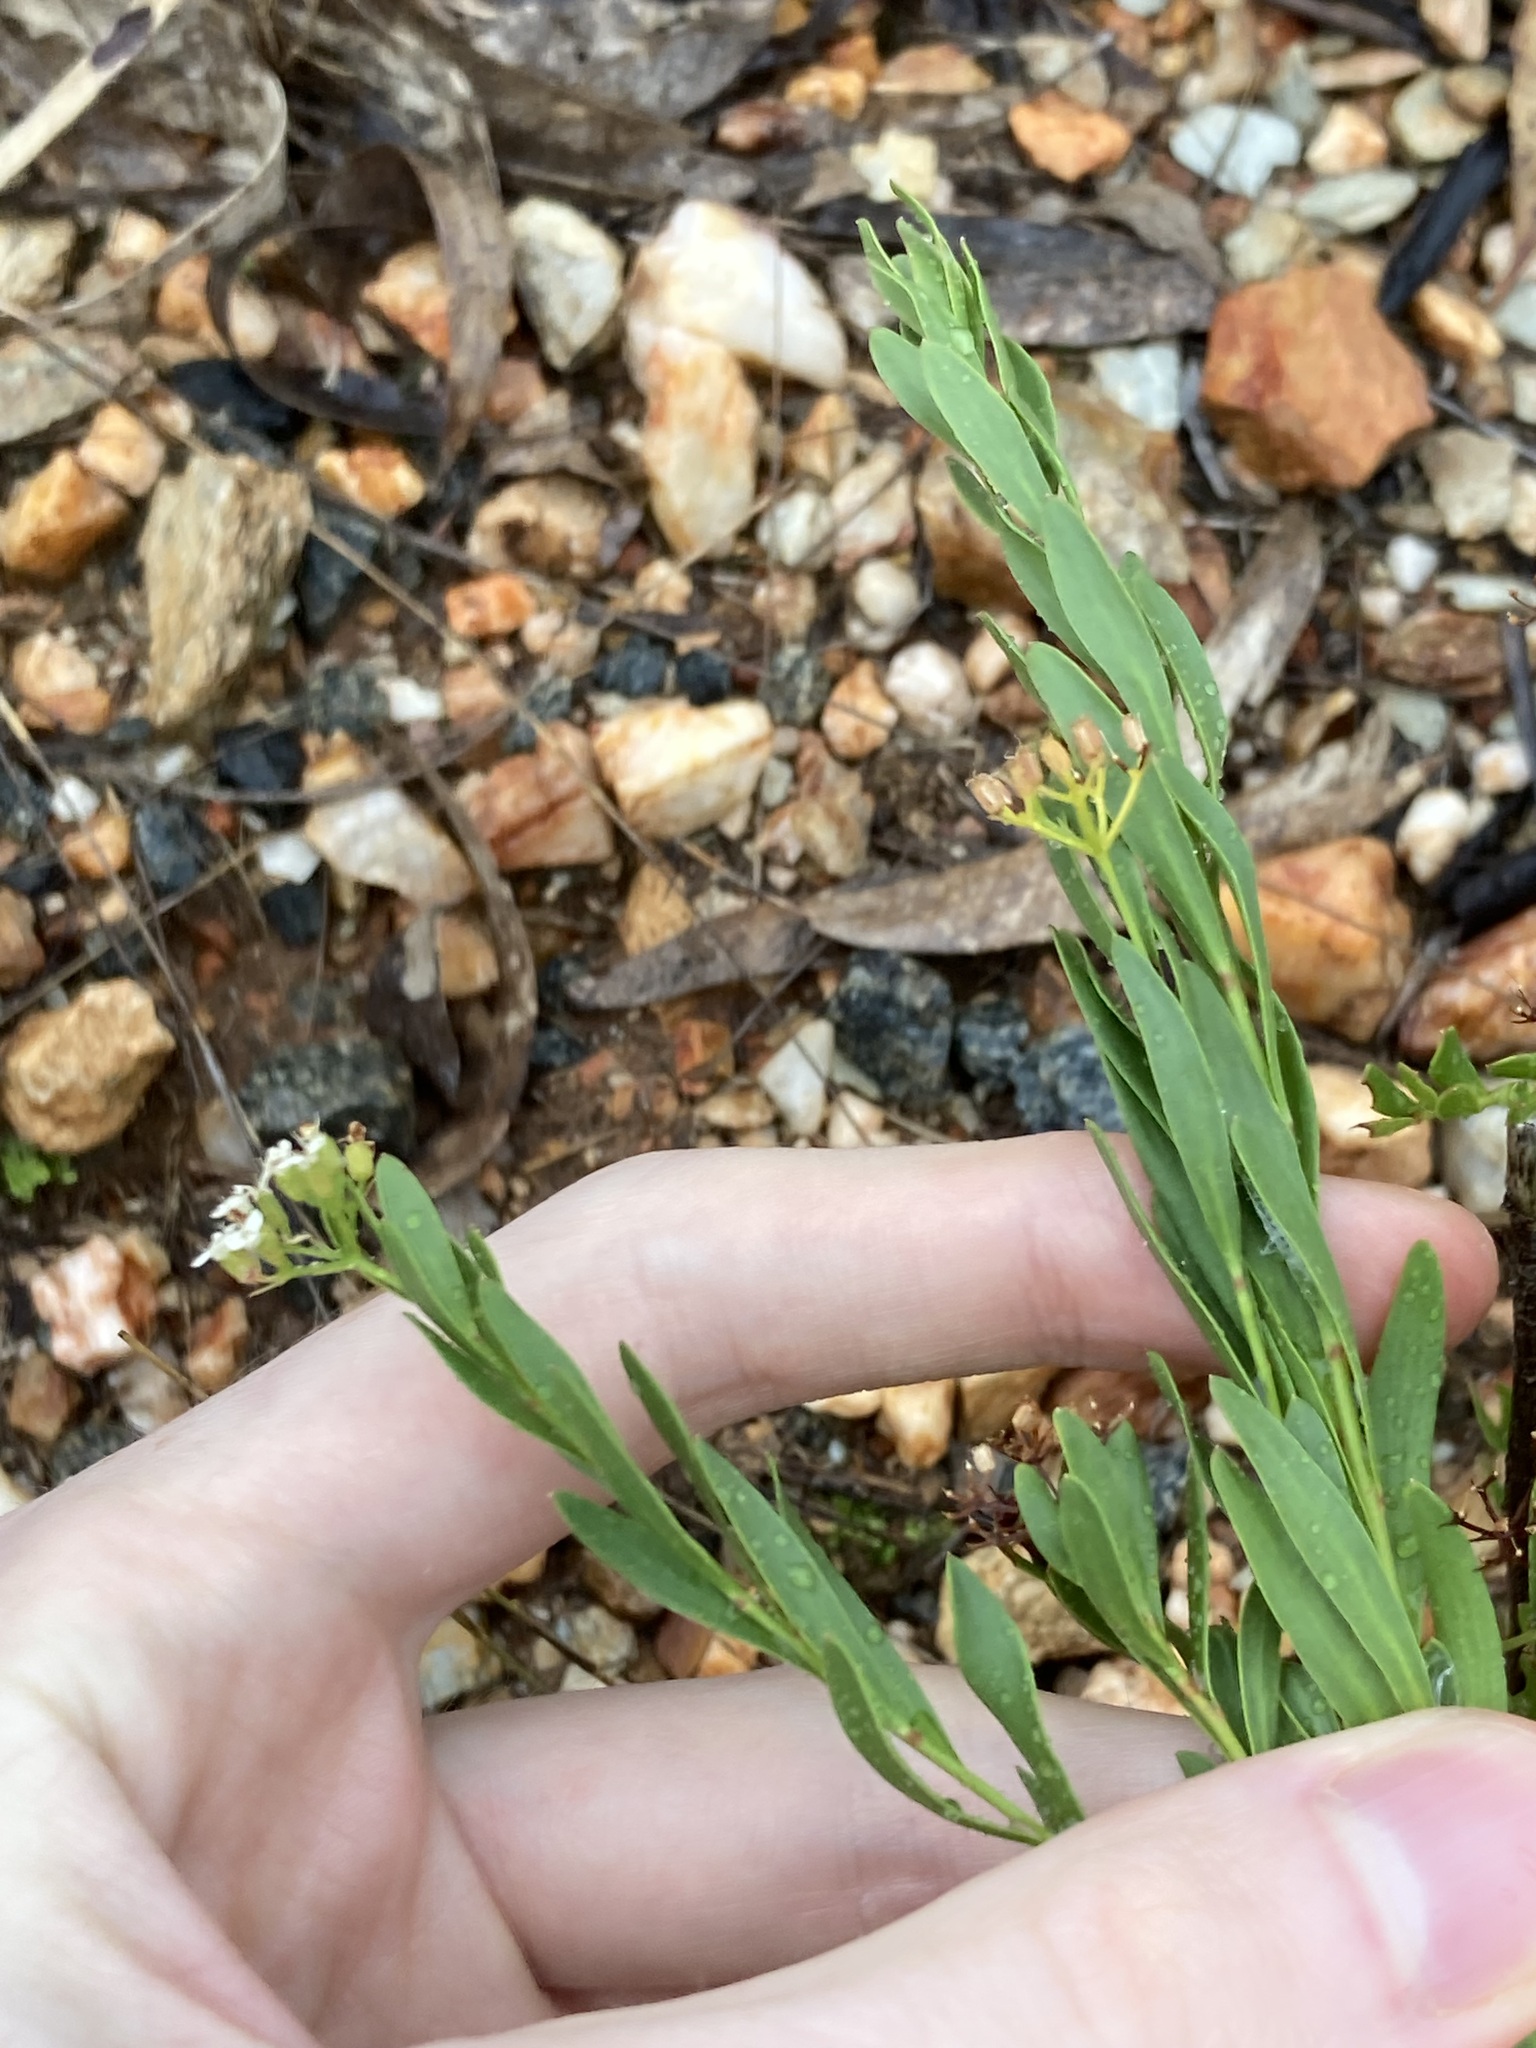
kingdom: Plantae
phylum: Tracheophyta
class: Magnoliopsida
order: Apiales
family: Apiaceae
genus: Platysace
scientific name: Platysace lanceolata
